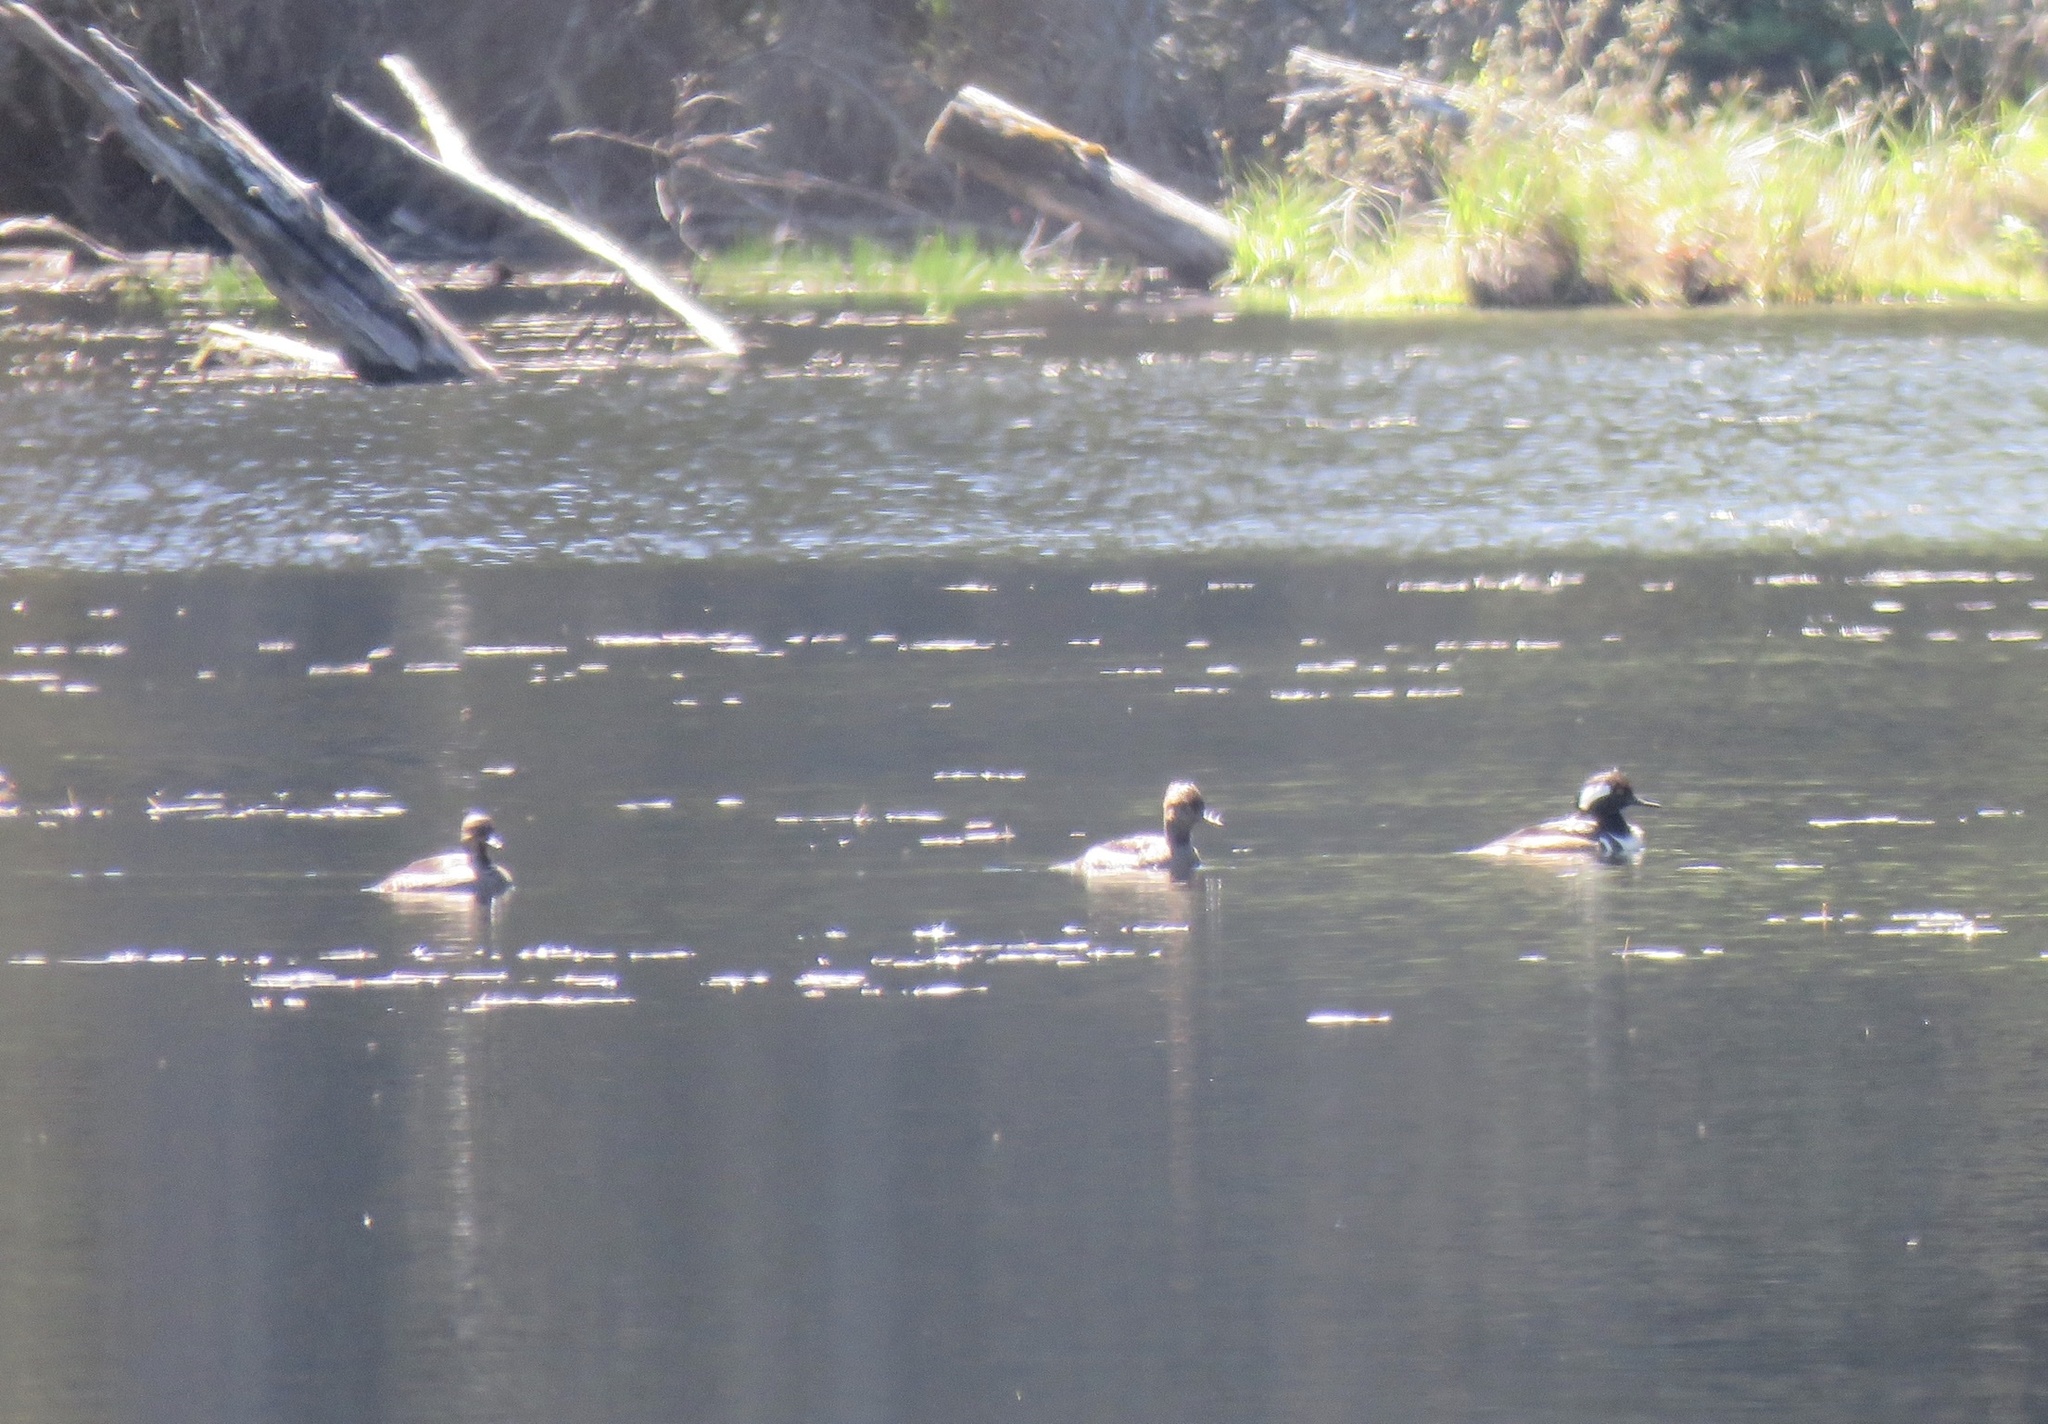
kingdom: Animalia
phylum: Chordata
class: Aves
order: Anseriformes
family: Anatidae
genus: Lophodytes
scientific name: Lophodytes cucullatus
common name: Hooded merganser
